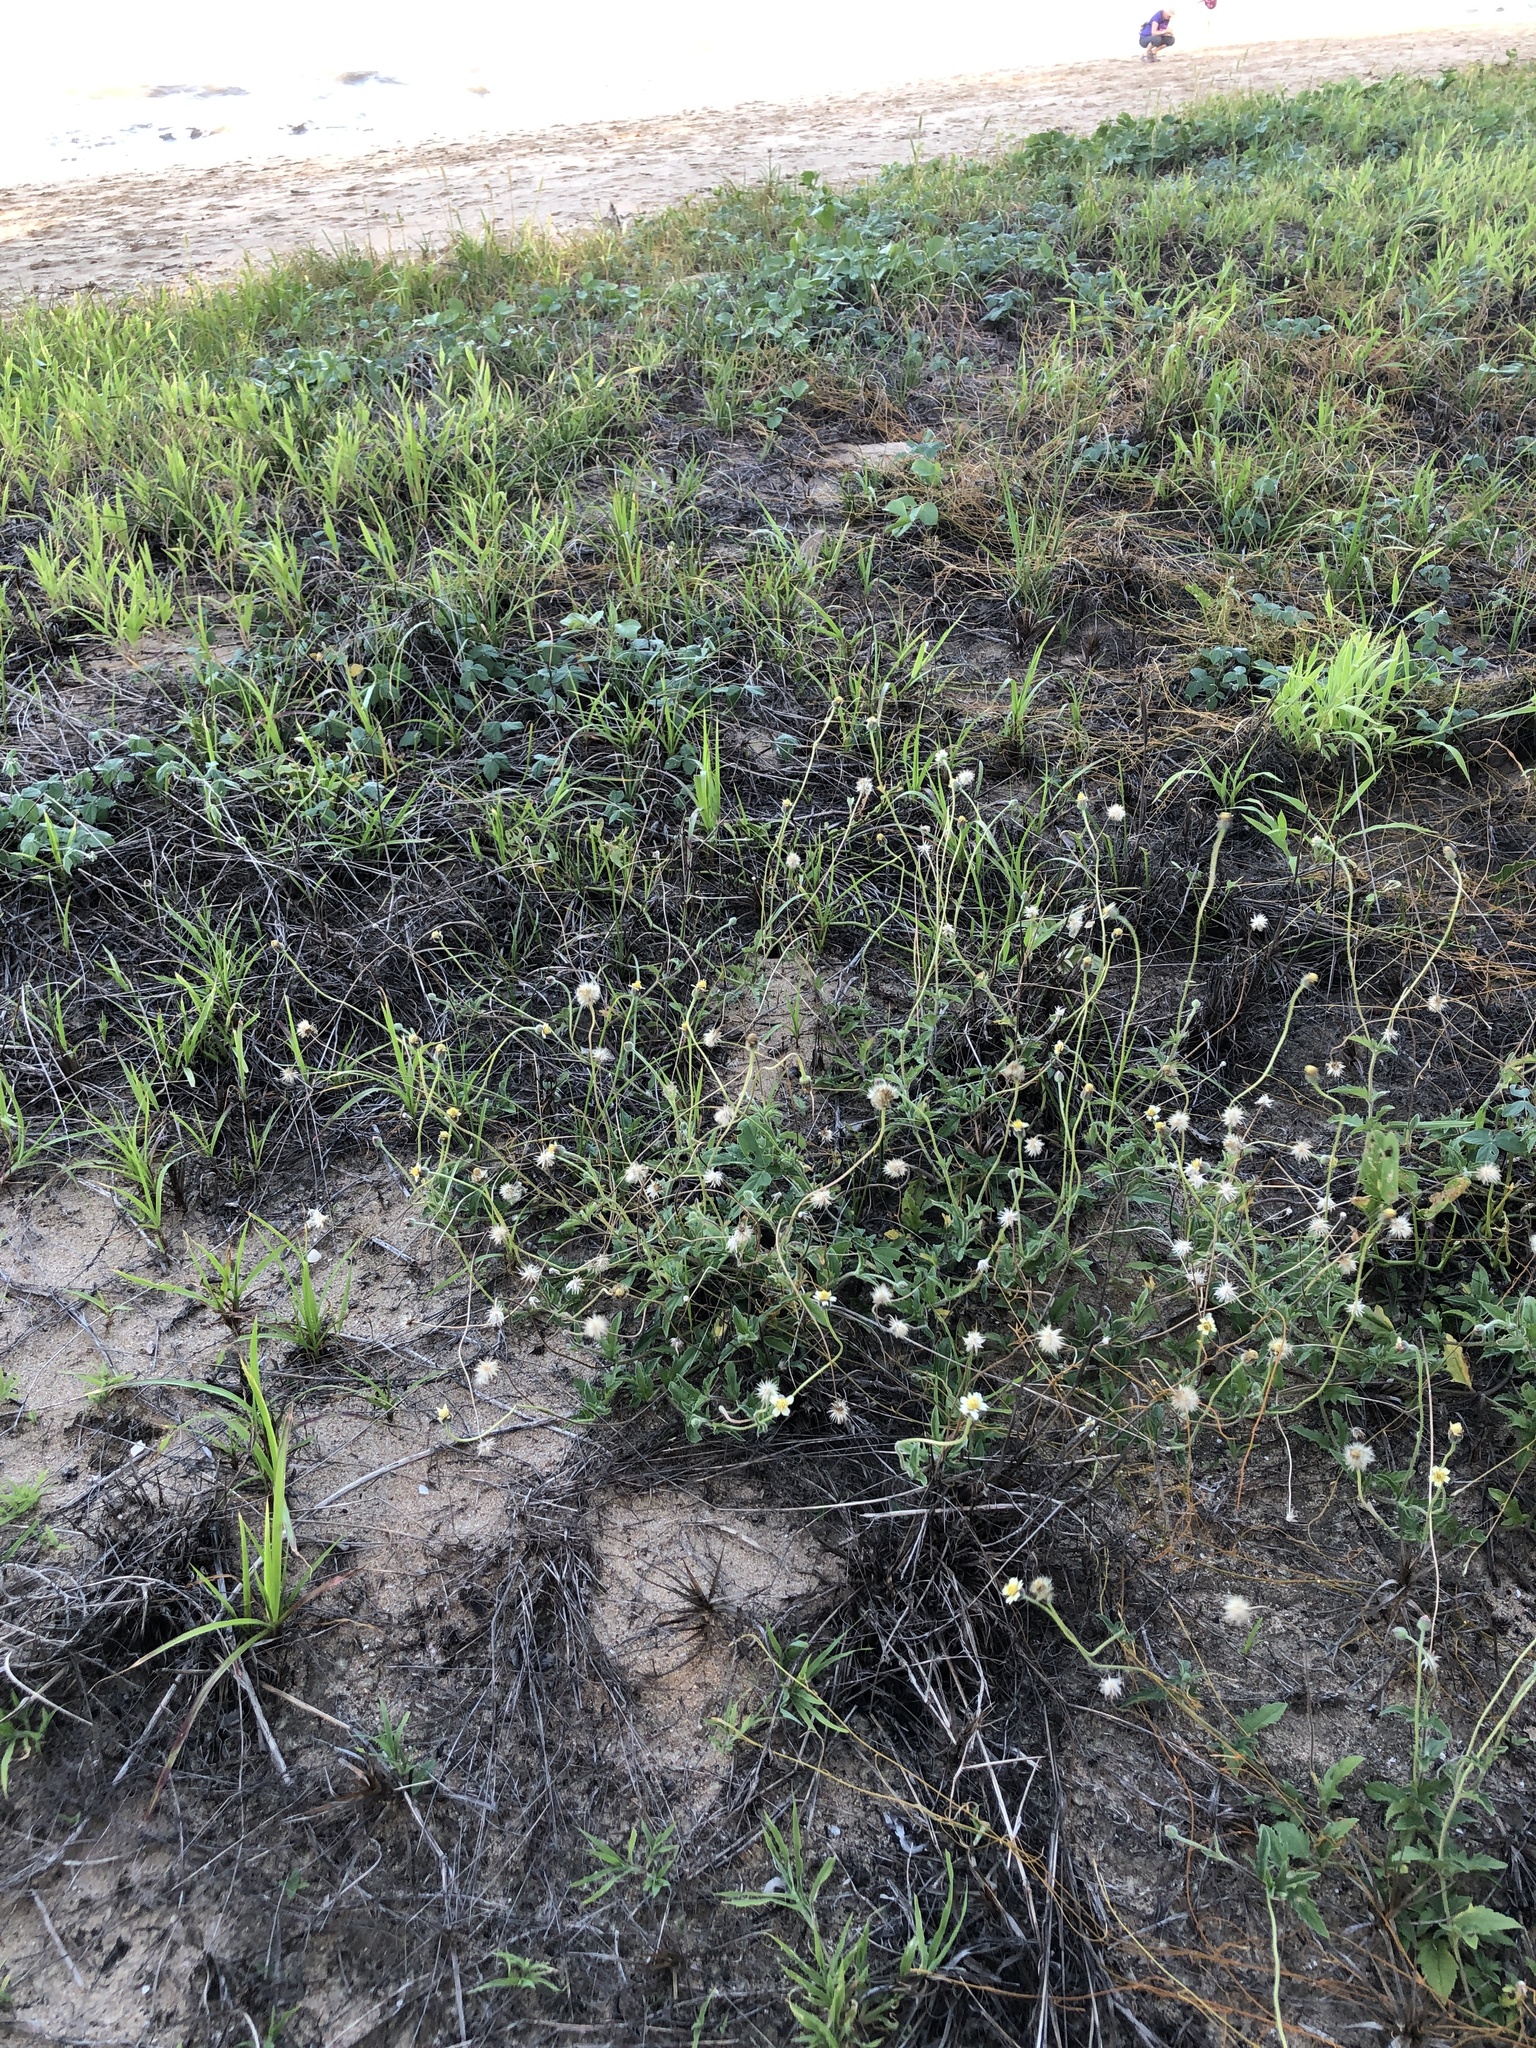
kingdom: Plantae
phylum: Tracheophyta
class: Magnoliopsida
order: Asterales
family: Asteraceae
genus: Tridax
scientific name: Tridax procumbens
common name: Coatbuttons
